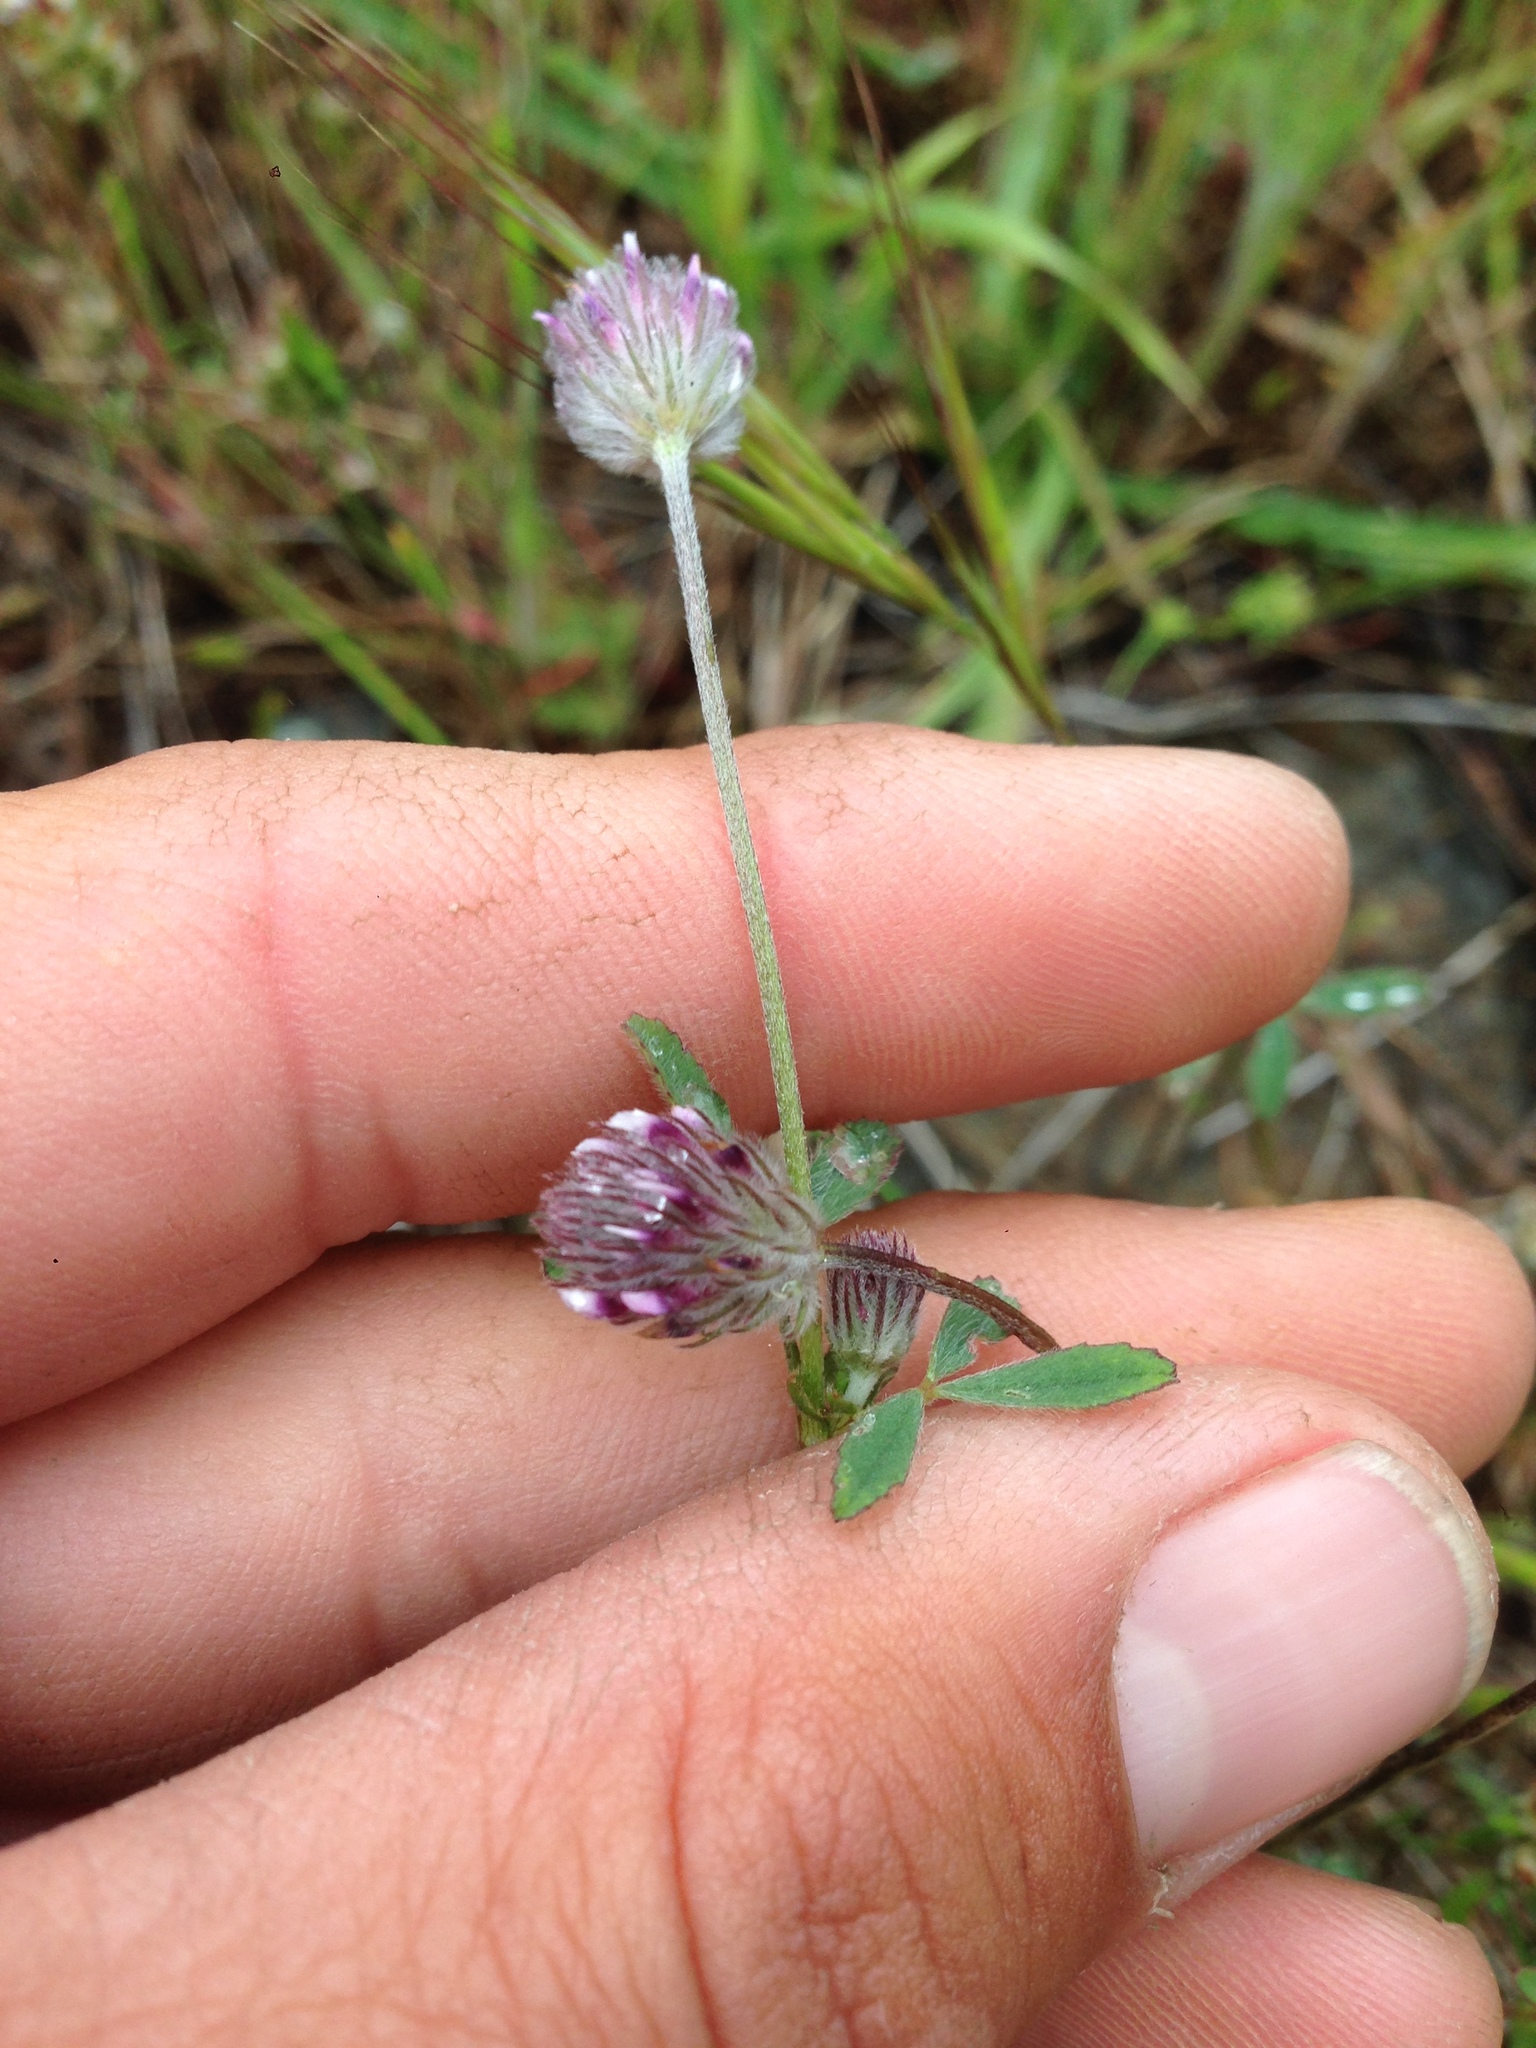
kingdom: Plantae
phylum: Tracheophyta
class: Magnoliopsida
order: Fabales
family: Fabaceae
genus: Trifolium
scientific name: Trifolium albopurpureum
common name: Rancheria clover
